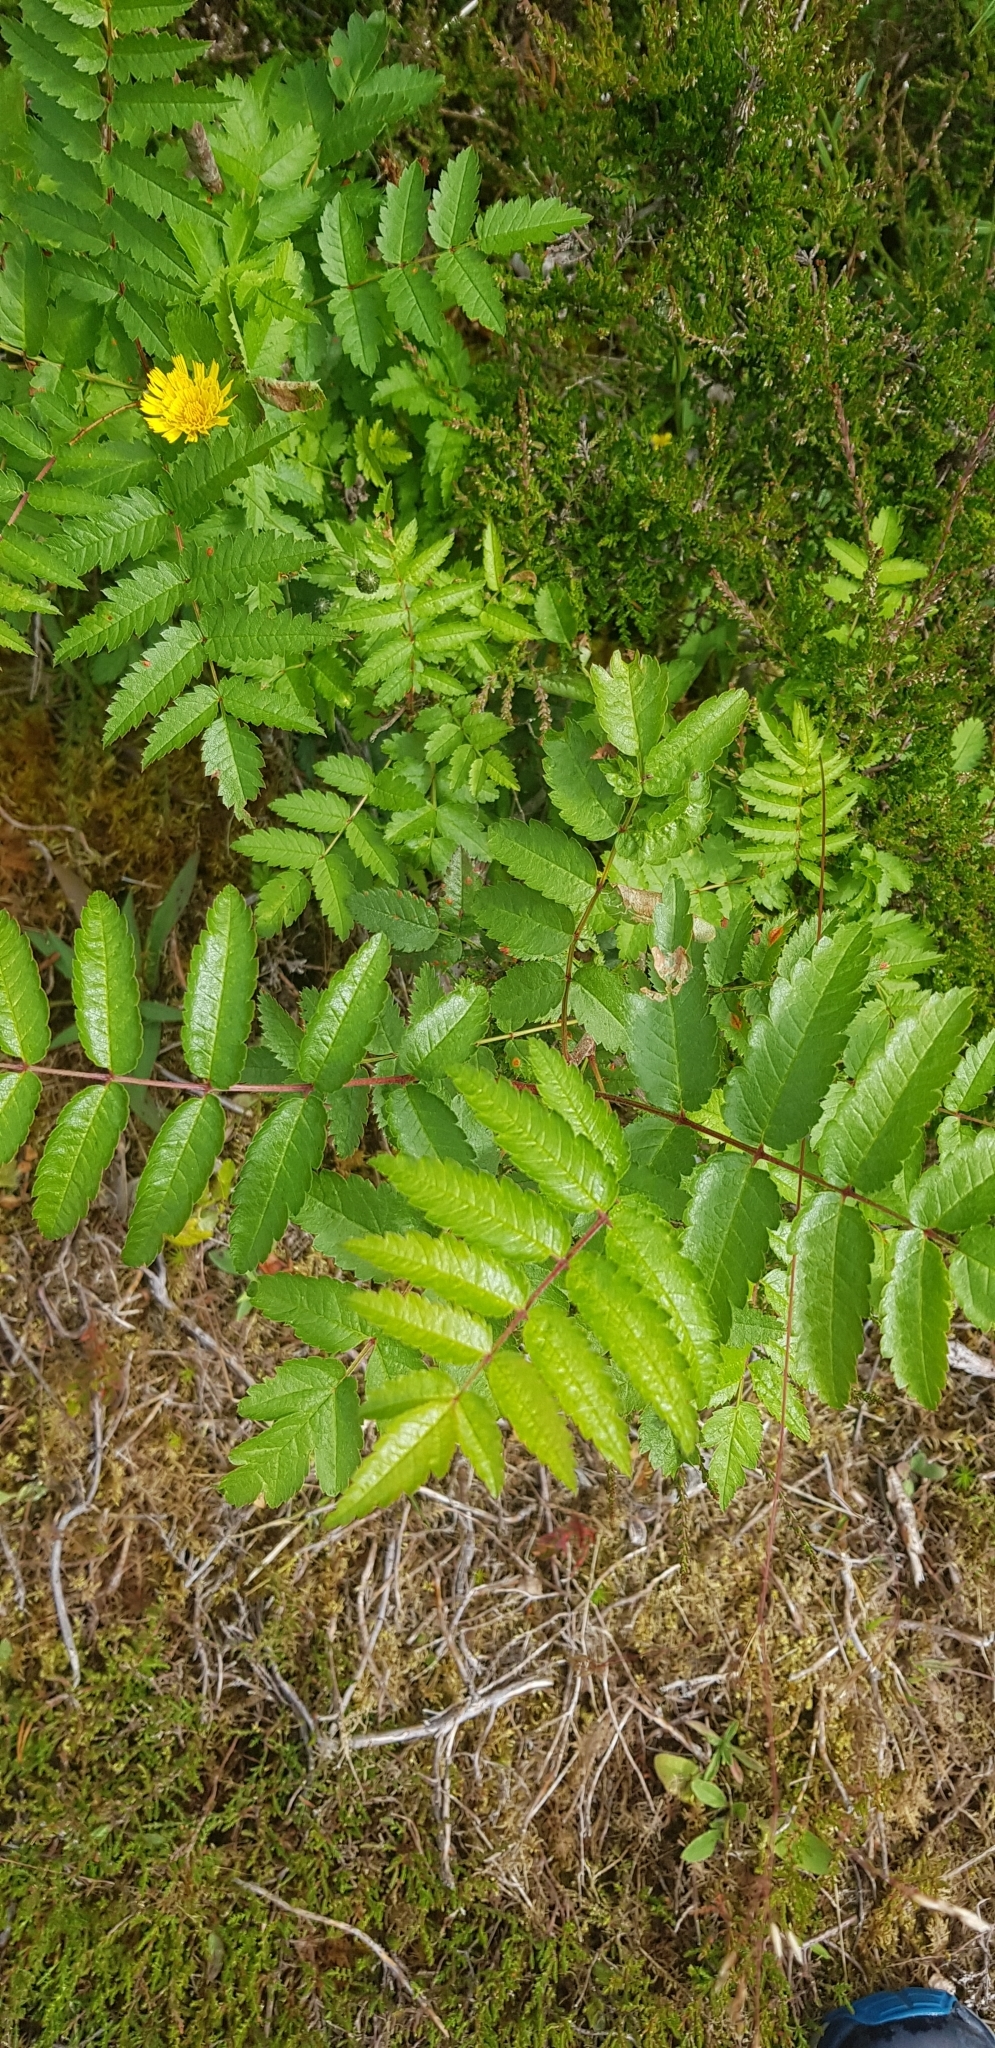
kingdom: Plantae
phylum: Tracheophyta
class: Magnoliopsida
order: Rosales
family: Rosaceae
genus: Sorbus
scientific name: Sorbus aucuparia
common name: Rowan
